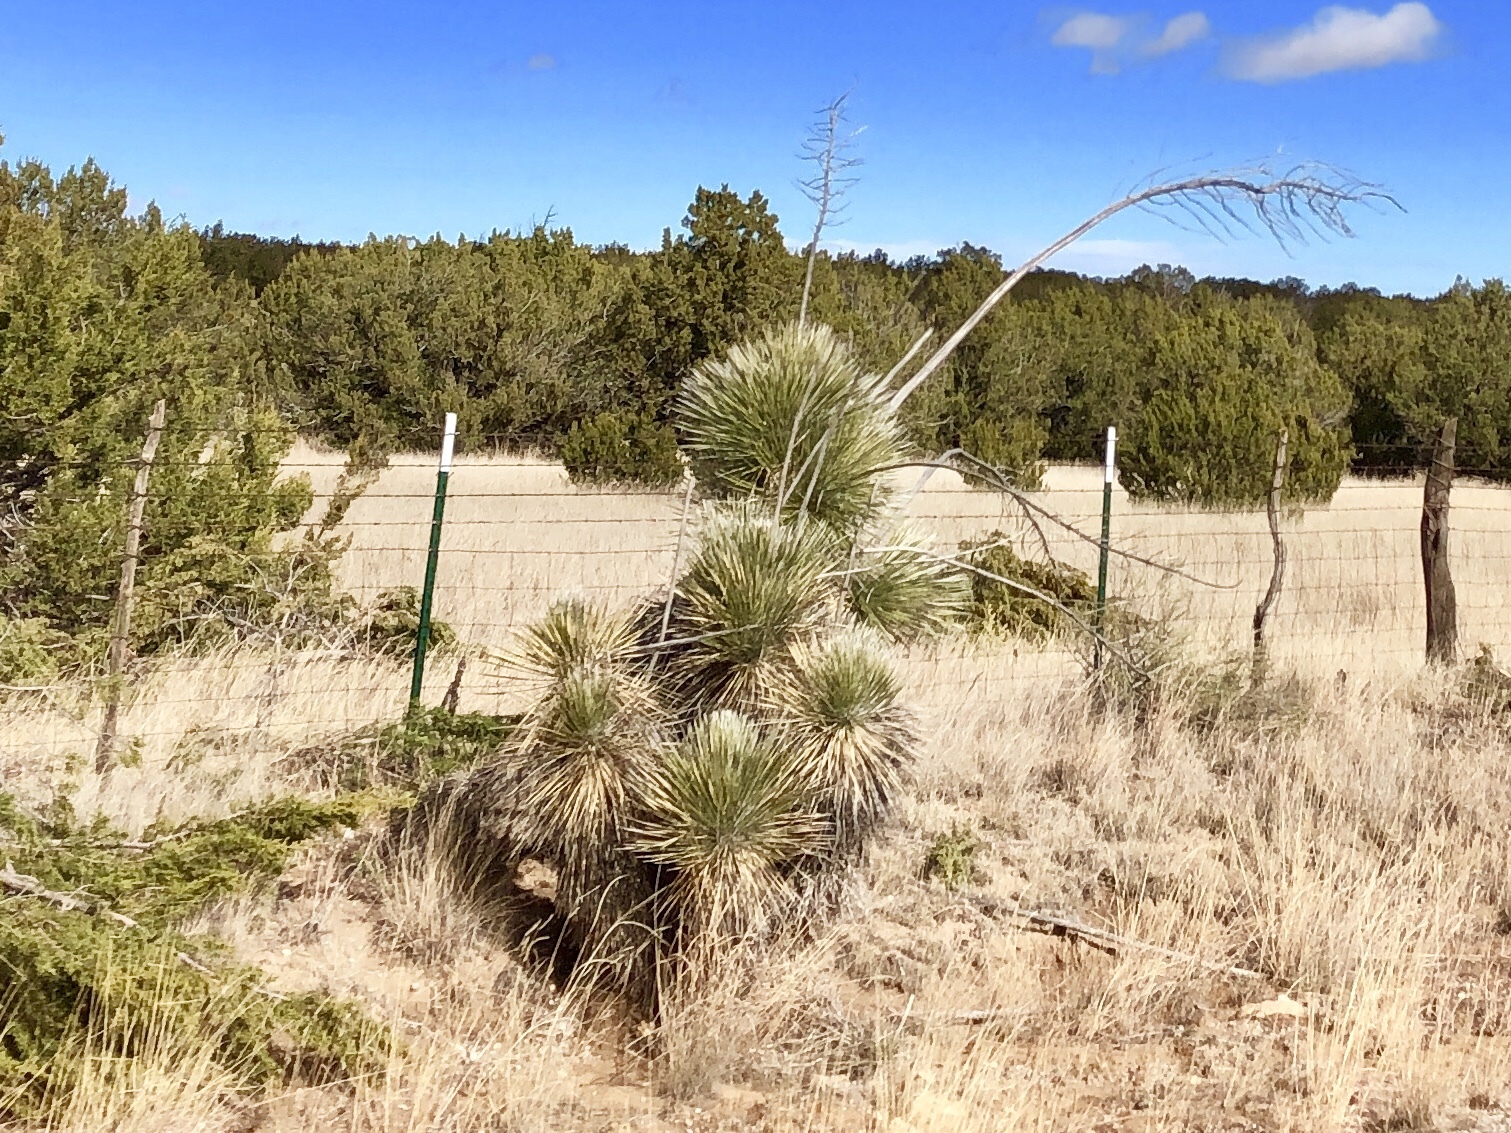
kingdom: Plantae
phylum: Tracheophyta
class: Liliopsida
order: Asparagales
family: Asparagaceae
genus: Yucca
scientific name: Yucca elata
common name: Palmella
